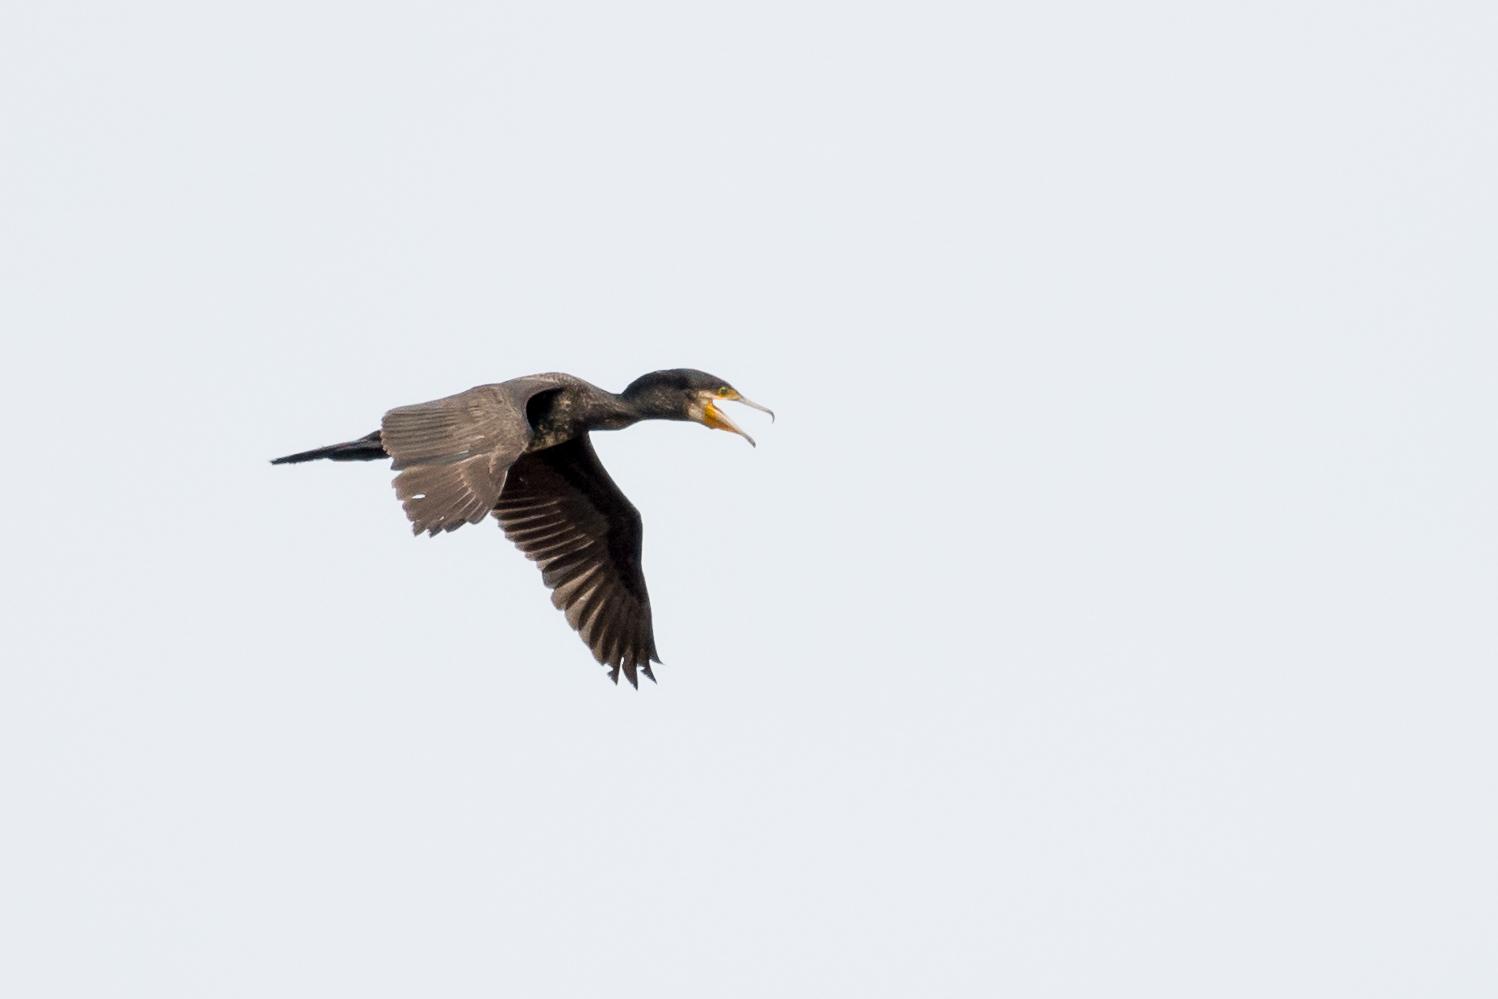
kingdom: Animalia
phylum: Chordata
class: Aves
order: Suliformes
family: Phalacrocoracidae
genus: Phalacrocorax
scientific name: Phalacrocorax carbo
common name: Great cormorant
